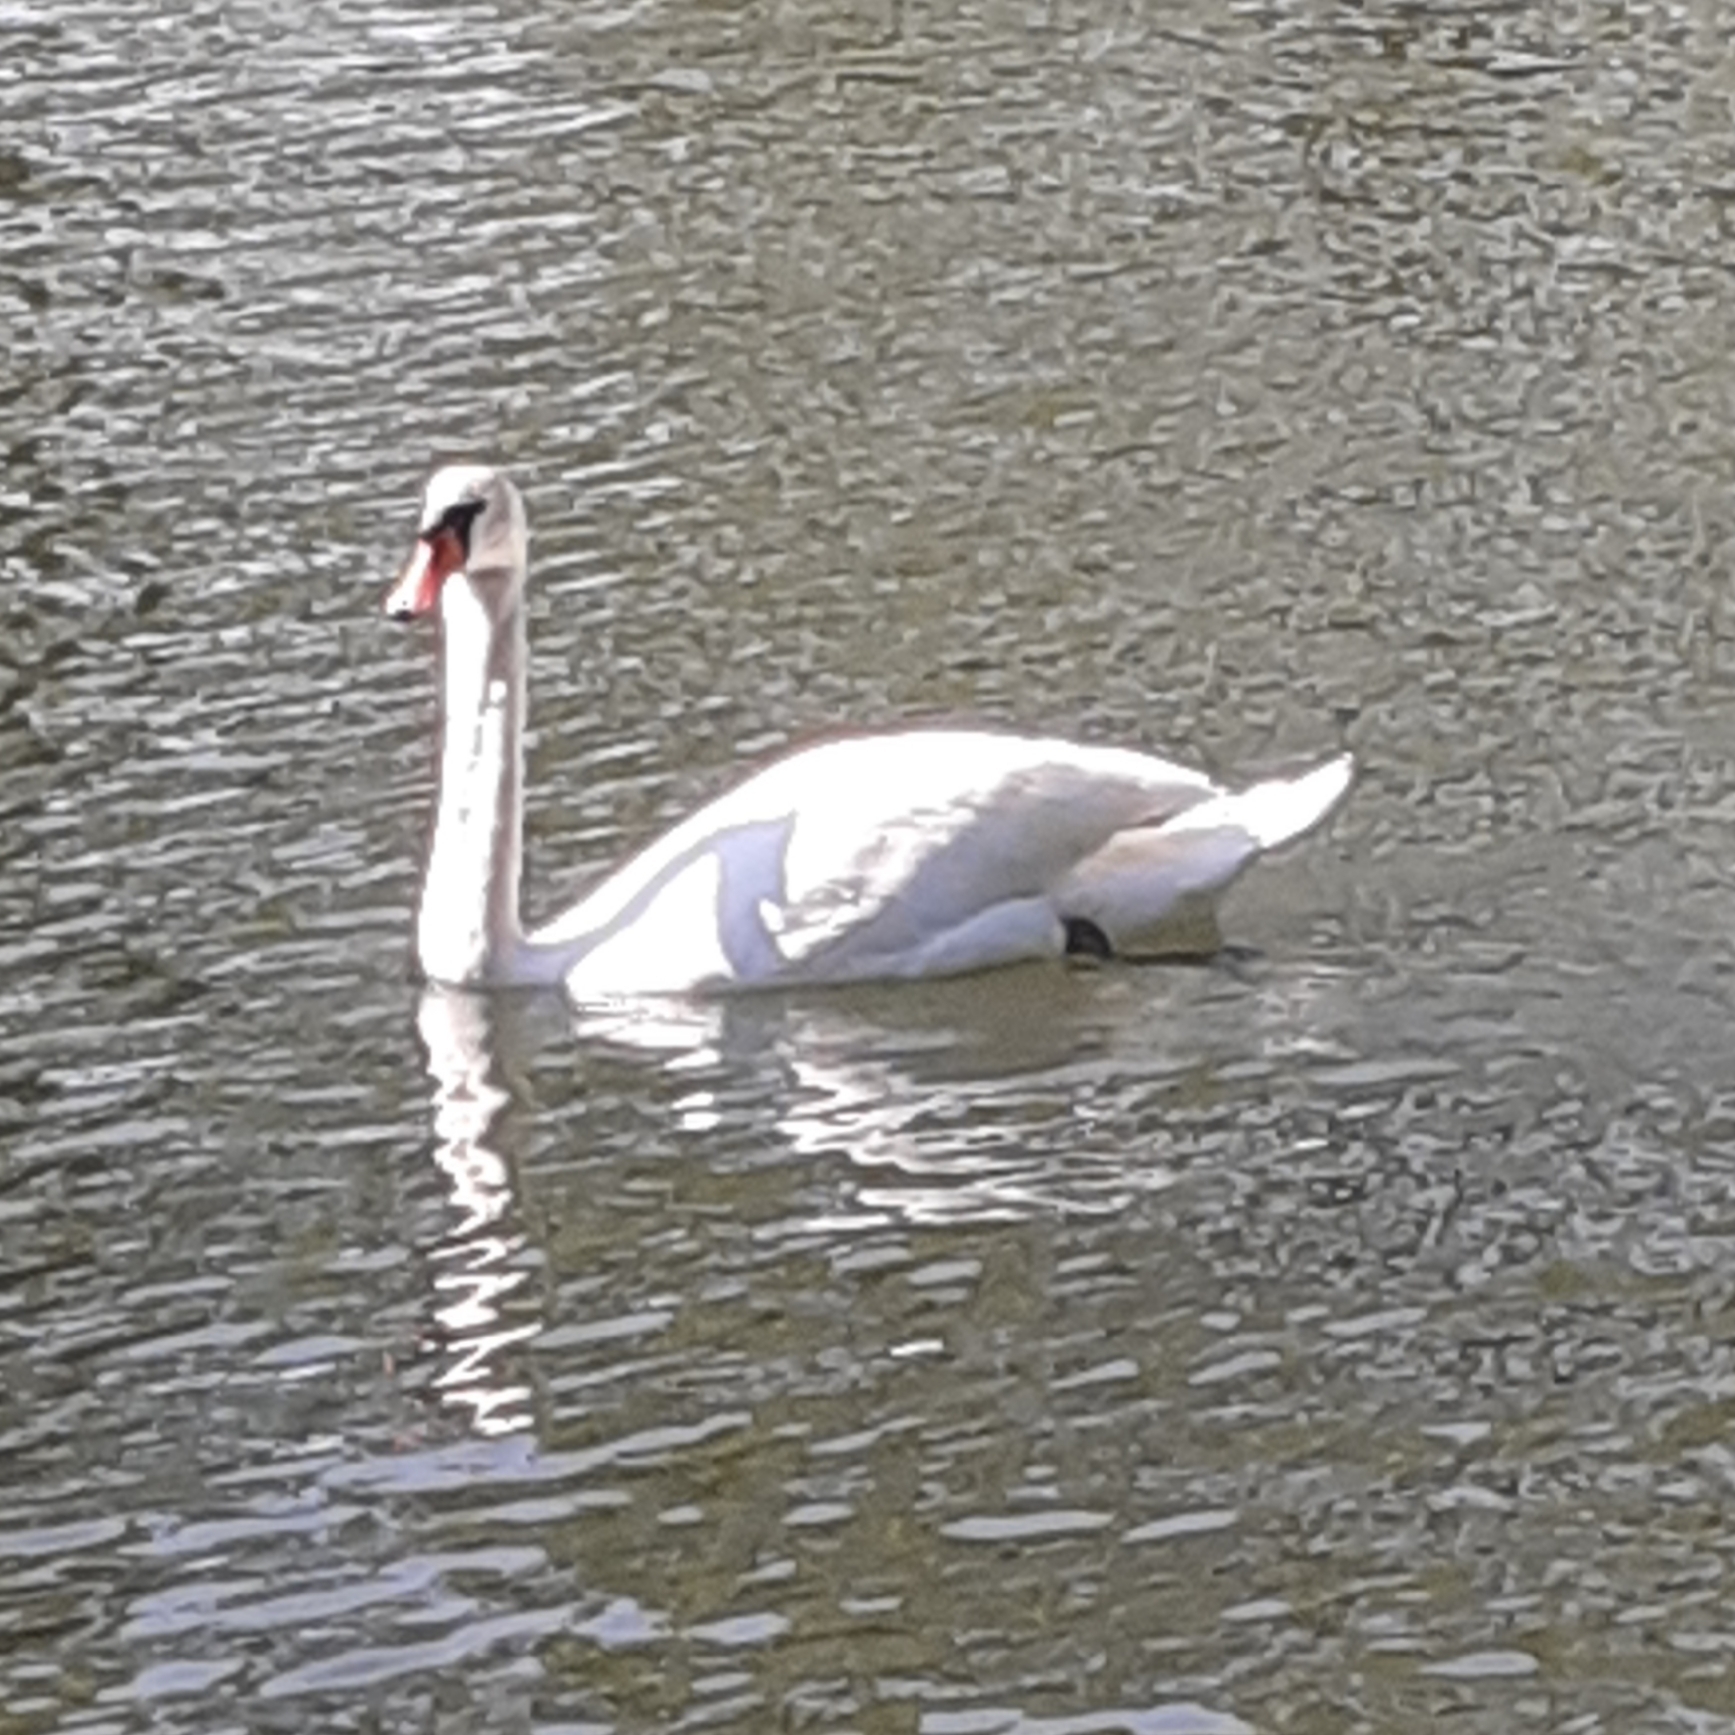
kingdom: Animalia
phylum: Chordata
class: Aves
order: Anseriformes
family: Anatidae
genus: Cygnus
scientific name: Cygnus olor
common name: Mute swan
